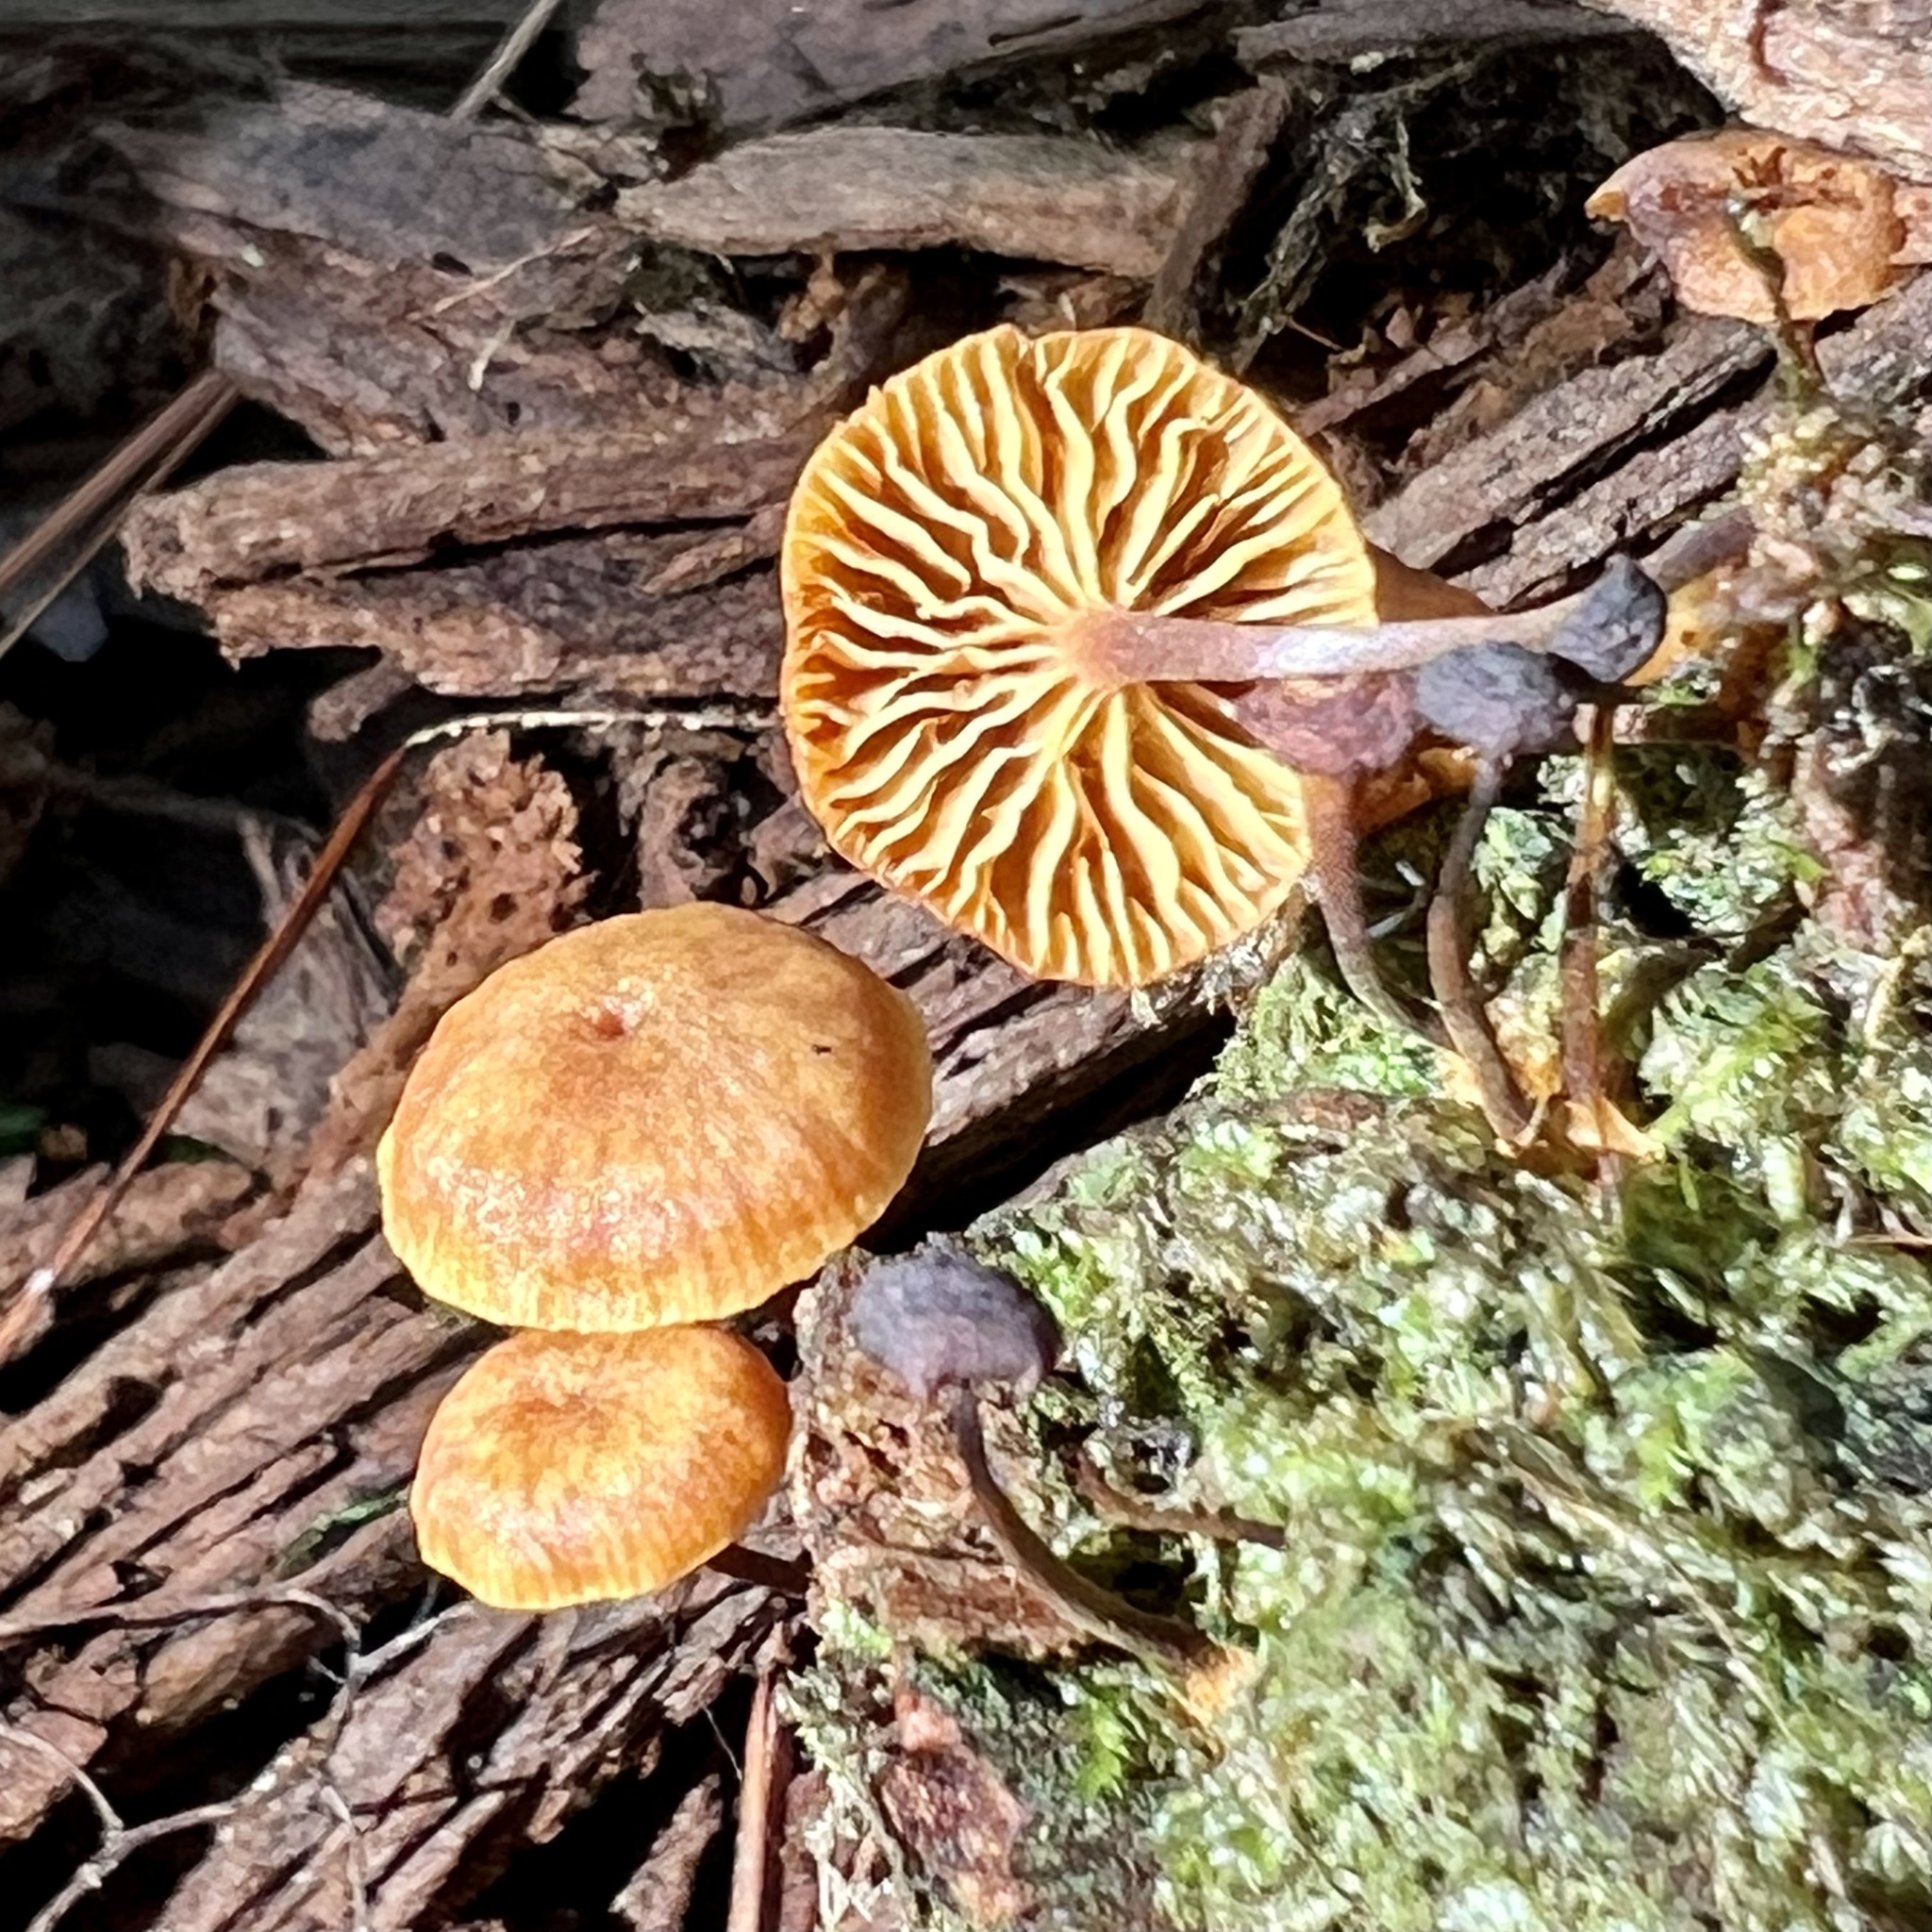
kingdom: Fungi
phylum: Basidiomycota
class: Agaricomycetes
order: Agaricales
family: Mycenaceae
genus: Xeromphalina
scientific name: Xeromphalina campanella
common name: Pinewood gingertail
